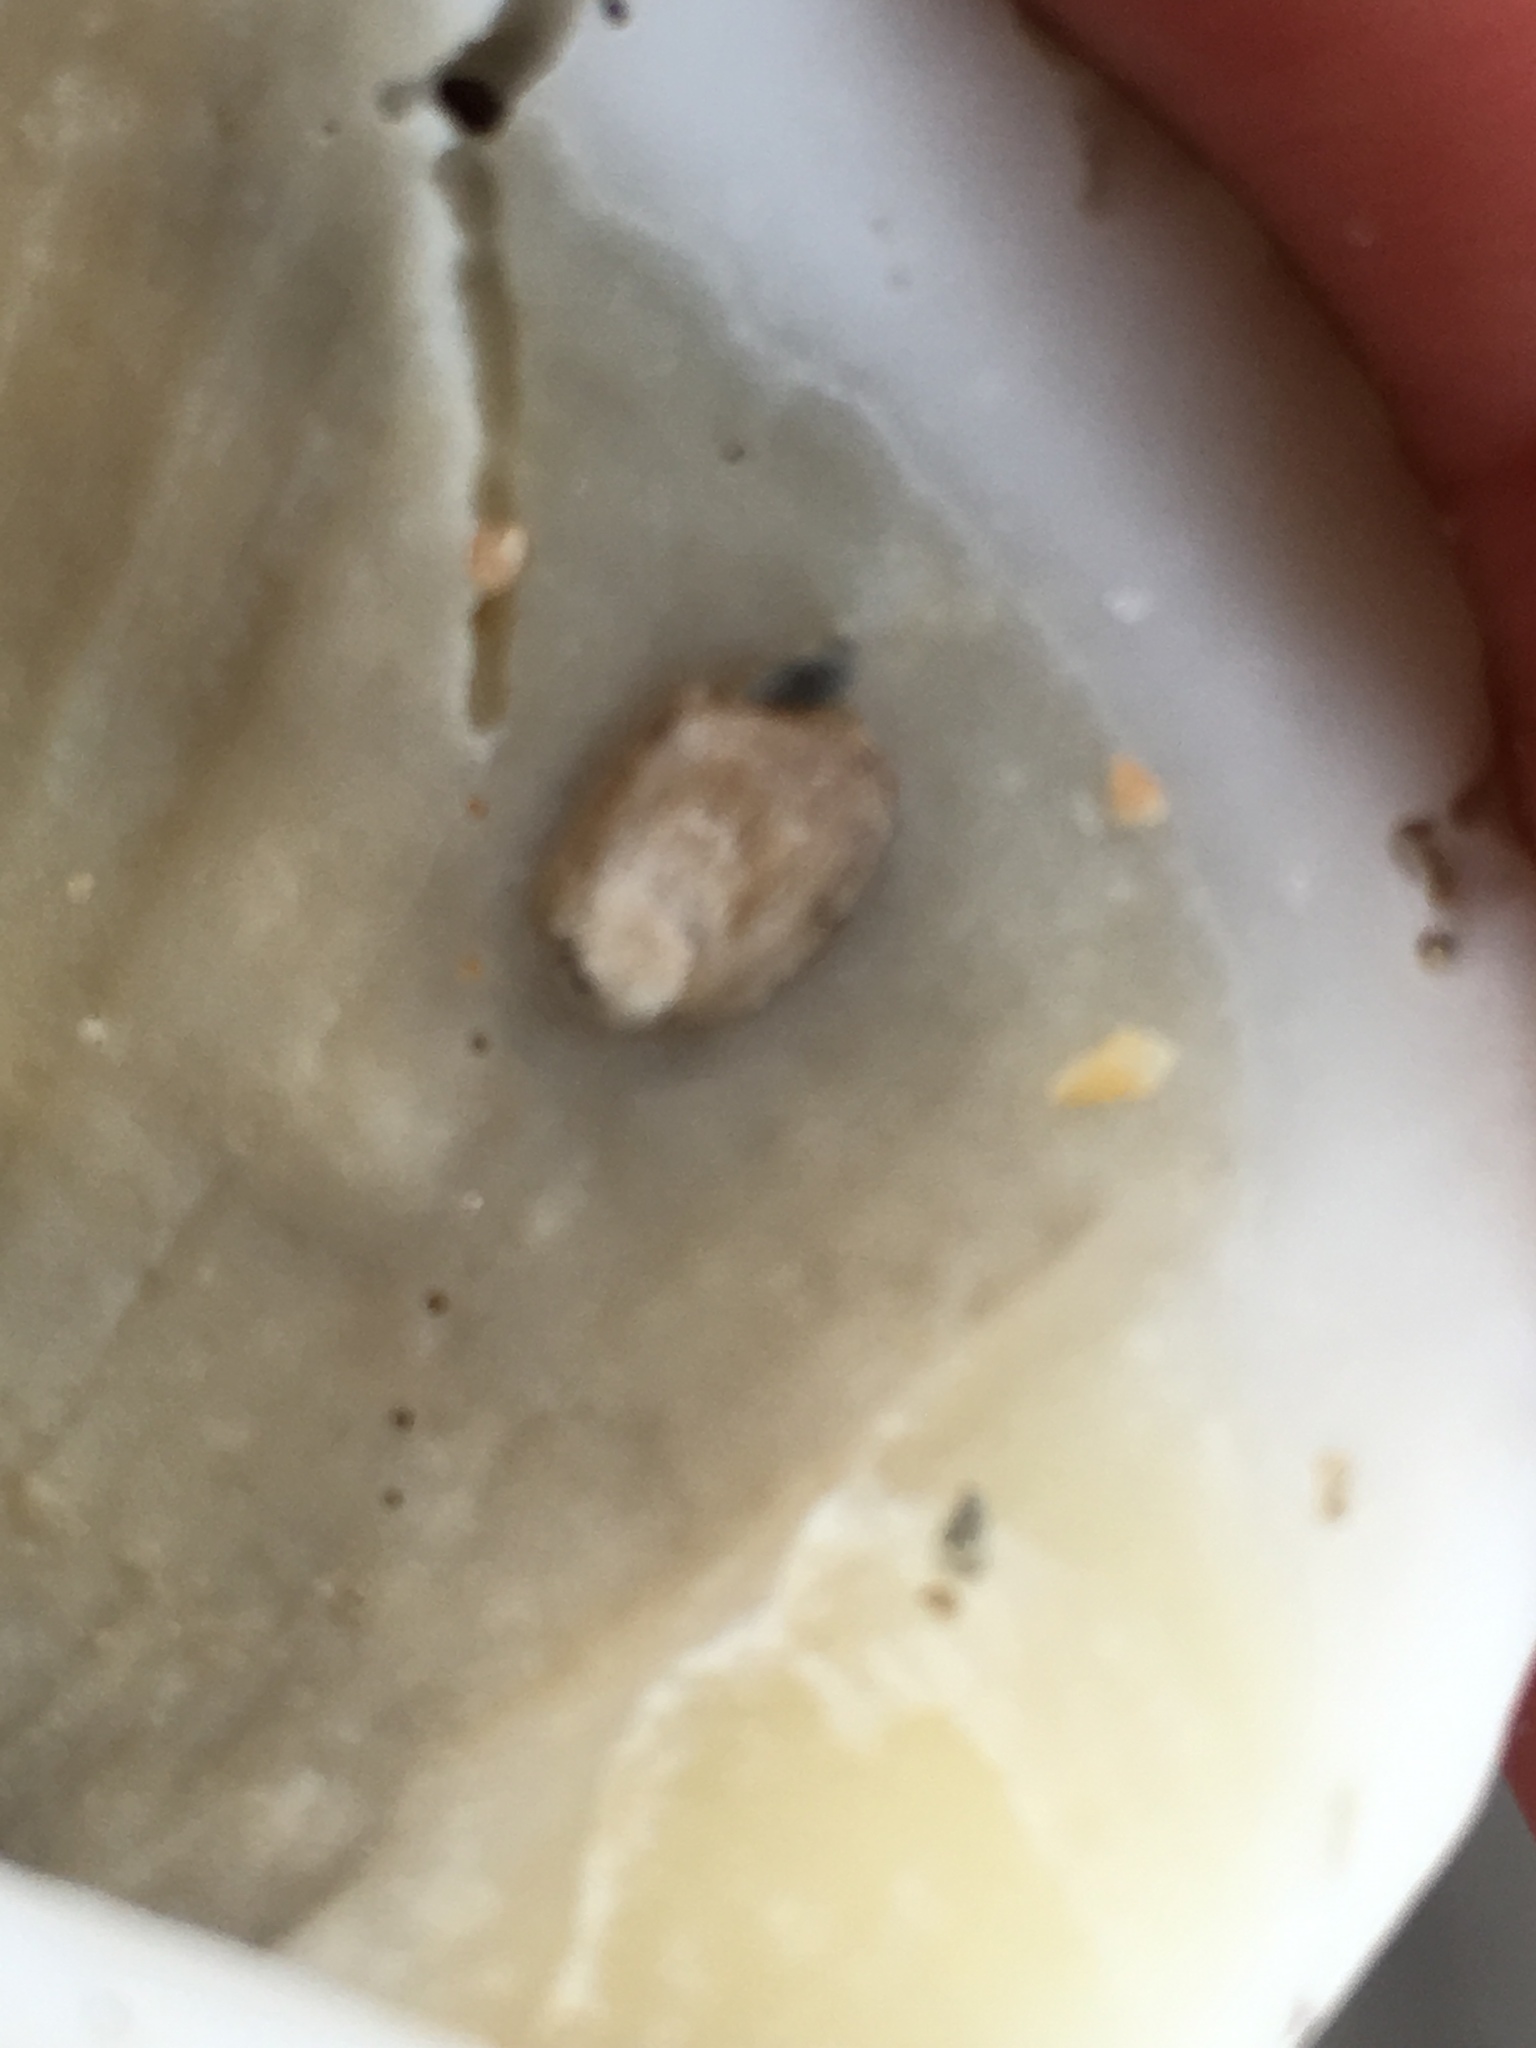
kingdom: Animalia
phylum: Mollusca
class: Bivalvia
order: Gastrochaenida
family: Gastrochaenidae
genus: Rocellaria
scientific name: Rocellaria stimpsonii
